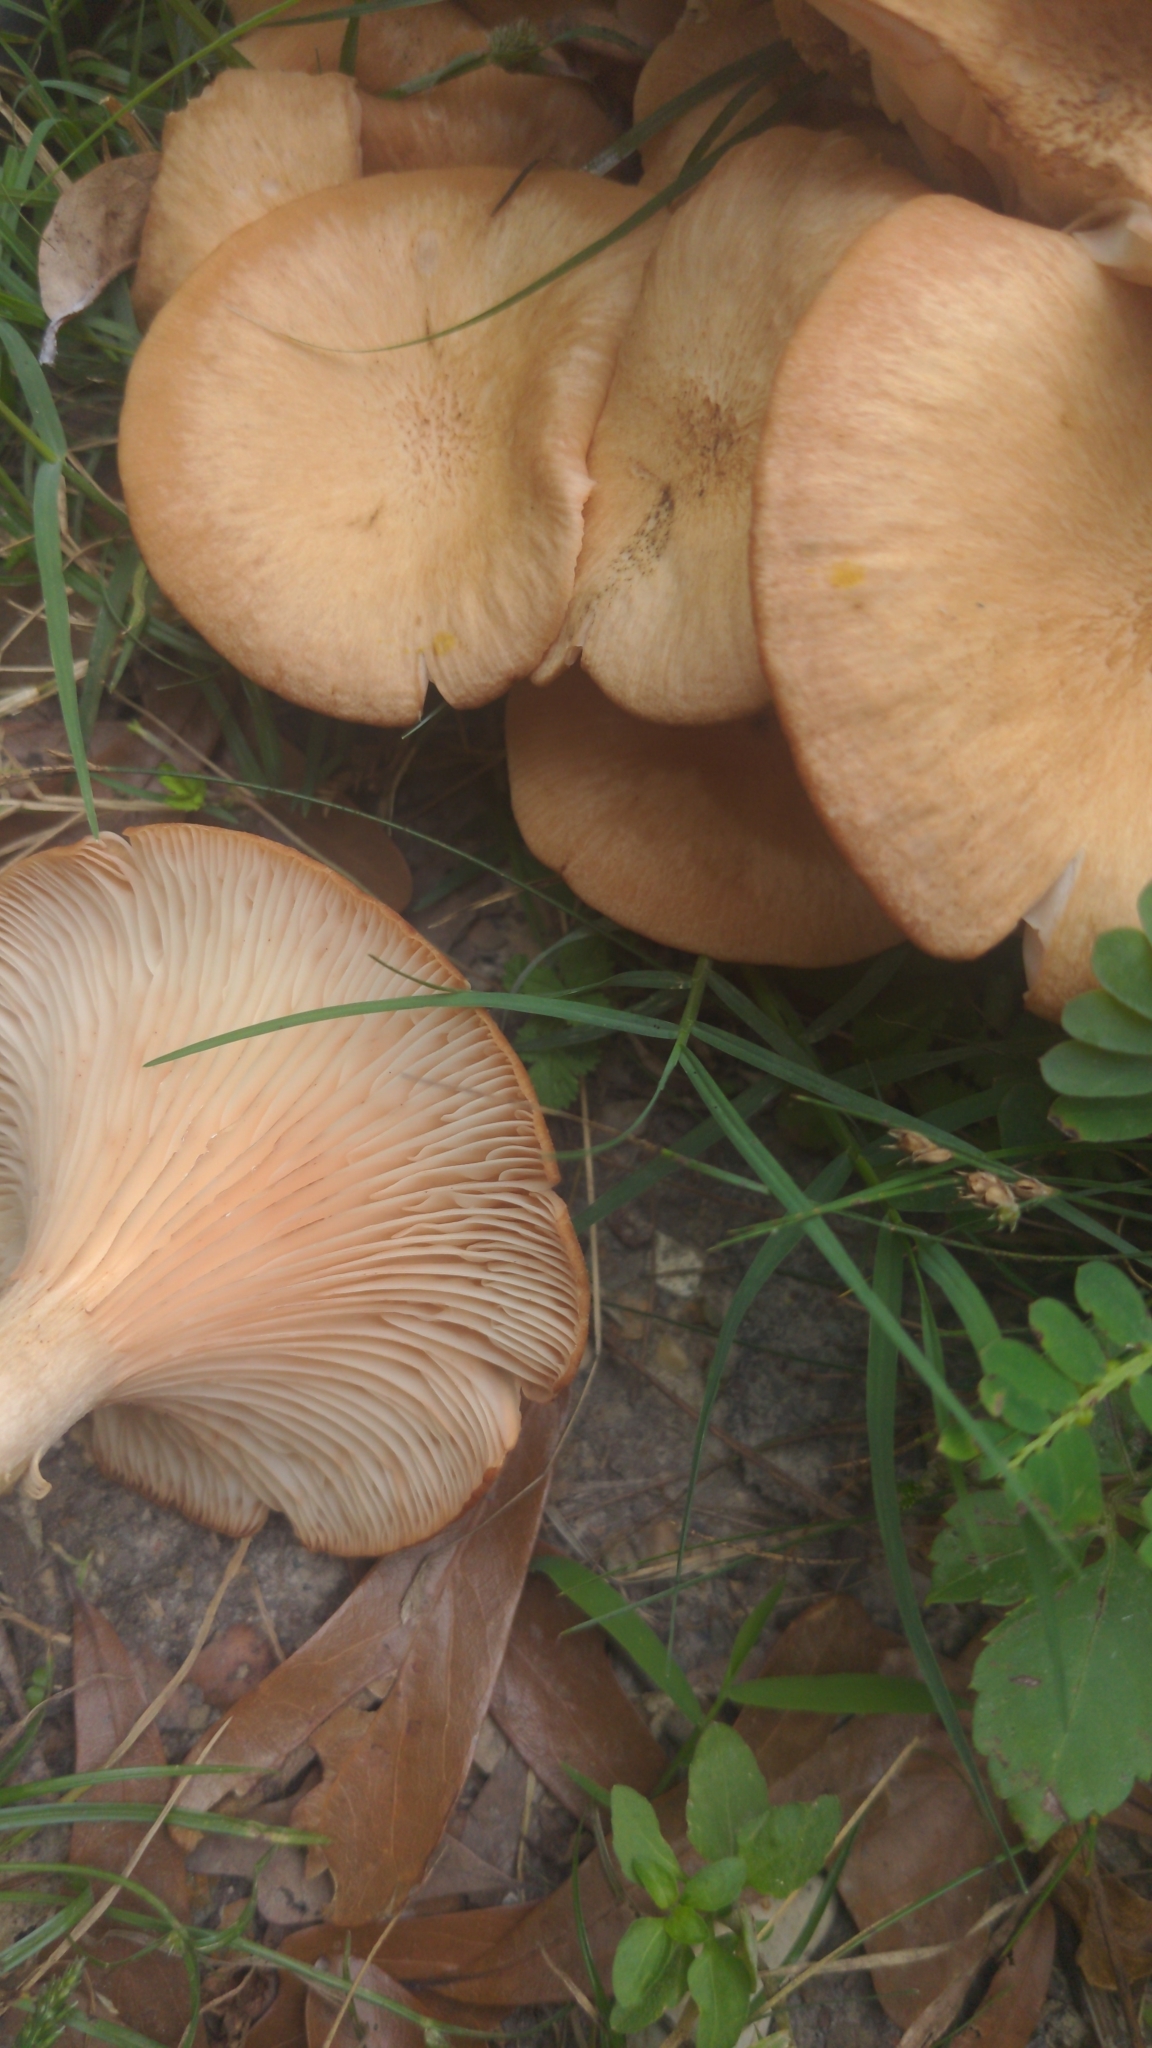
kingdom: Fungi
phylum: Basidiomycota
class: Agaricomycetes
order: Agaricales
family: Physalacriaceae
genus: Desarmillaria
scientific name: Desarmillaria caespitosa
